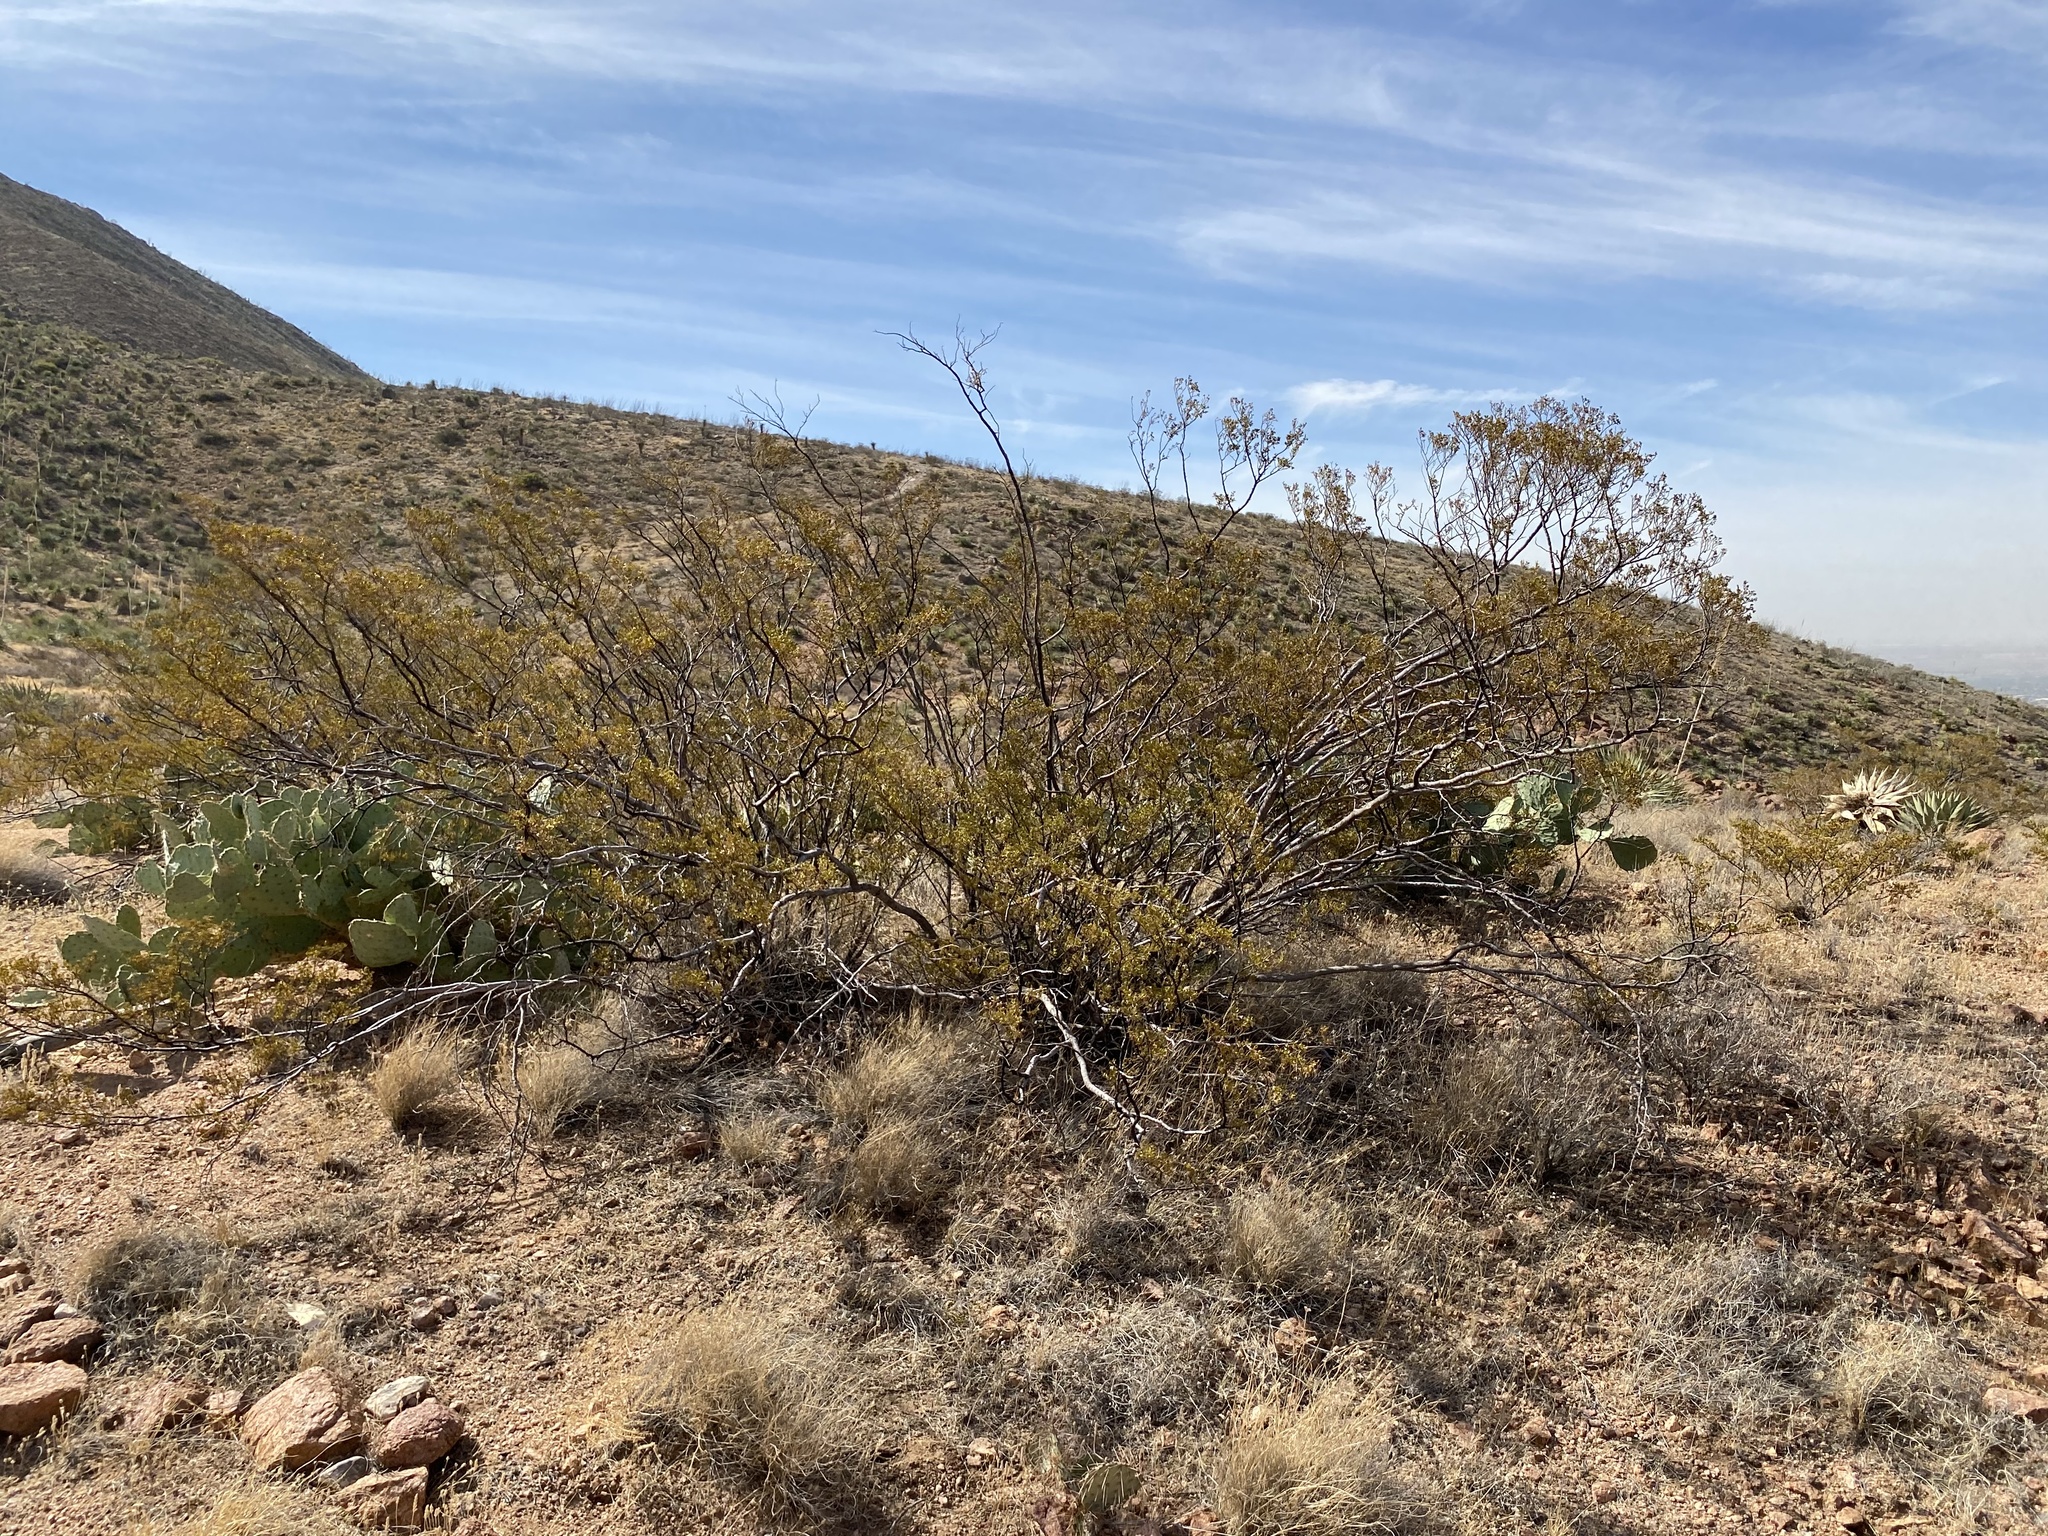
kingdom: Plantae
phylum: Tracheophyta
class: Magnoliopsida
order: Zygophyllales
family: Zygophyllaceae
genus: Larrea
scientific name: Larrea tridentata
